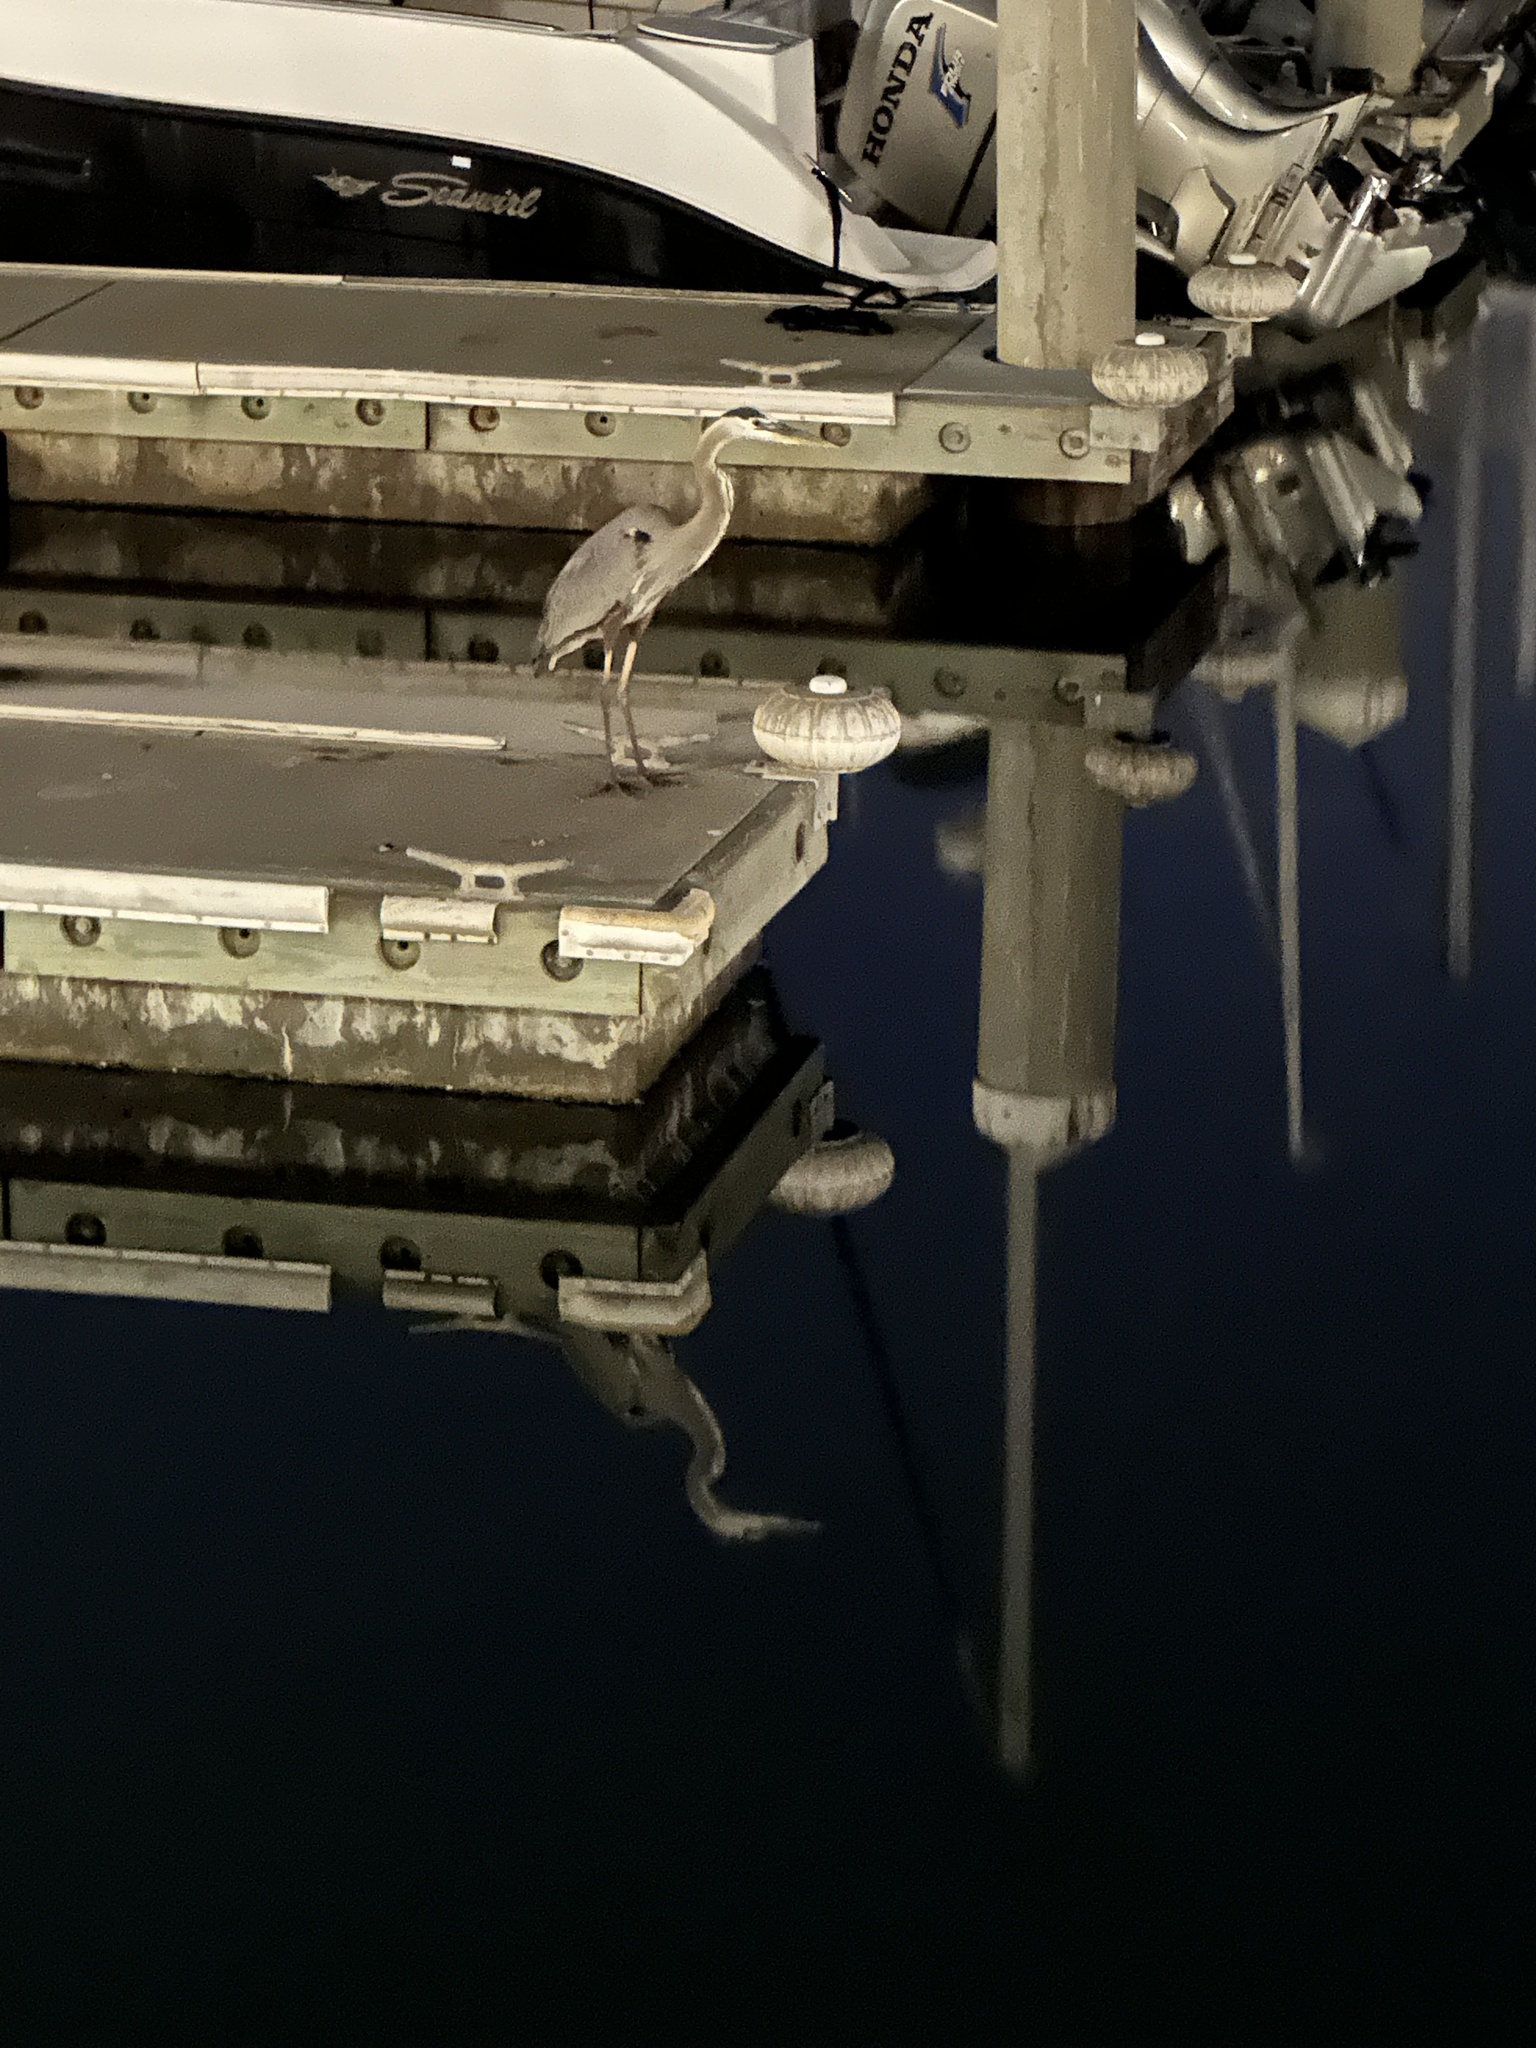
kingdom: Animalia
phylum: Chordata
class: Aves
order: Pelecaniformes
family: Ardeidae
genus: Ardea
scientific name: Ardea herodias
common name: Great blue heron
